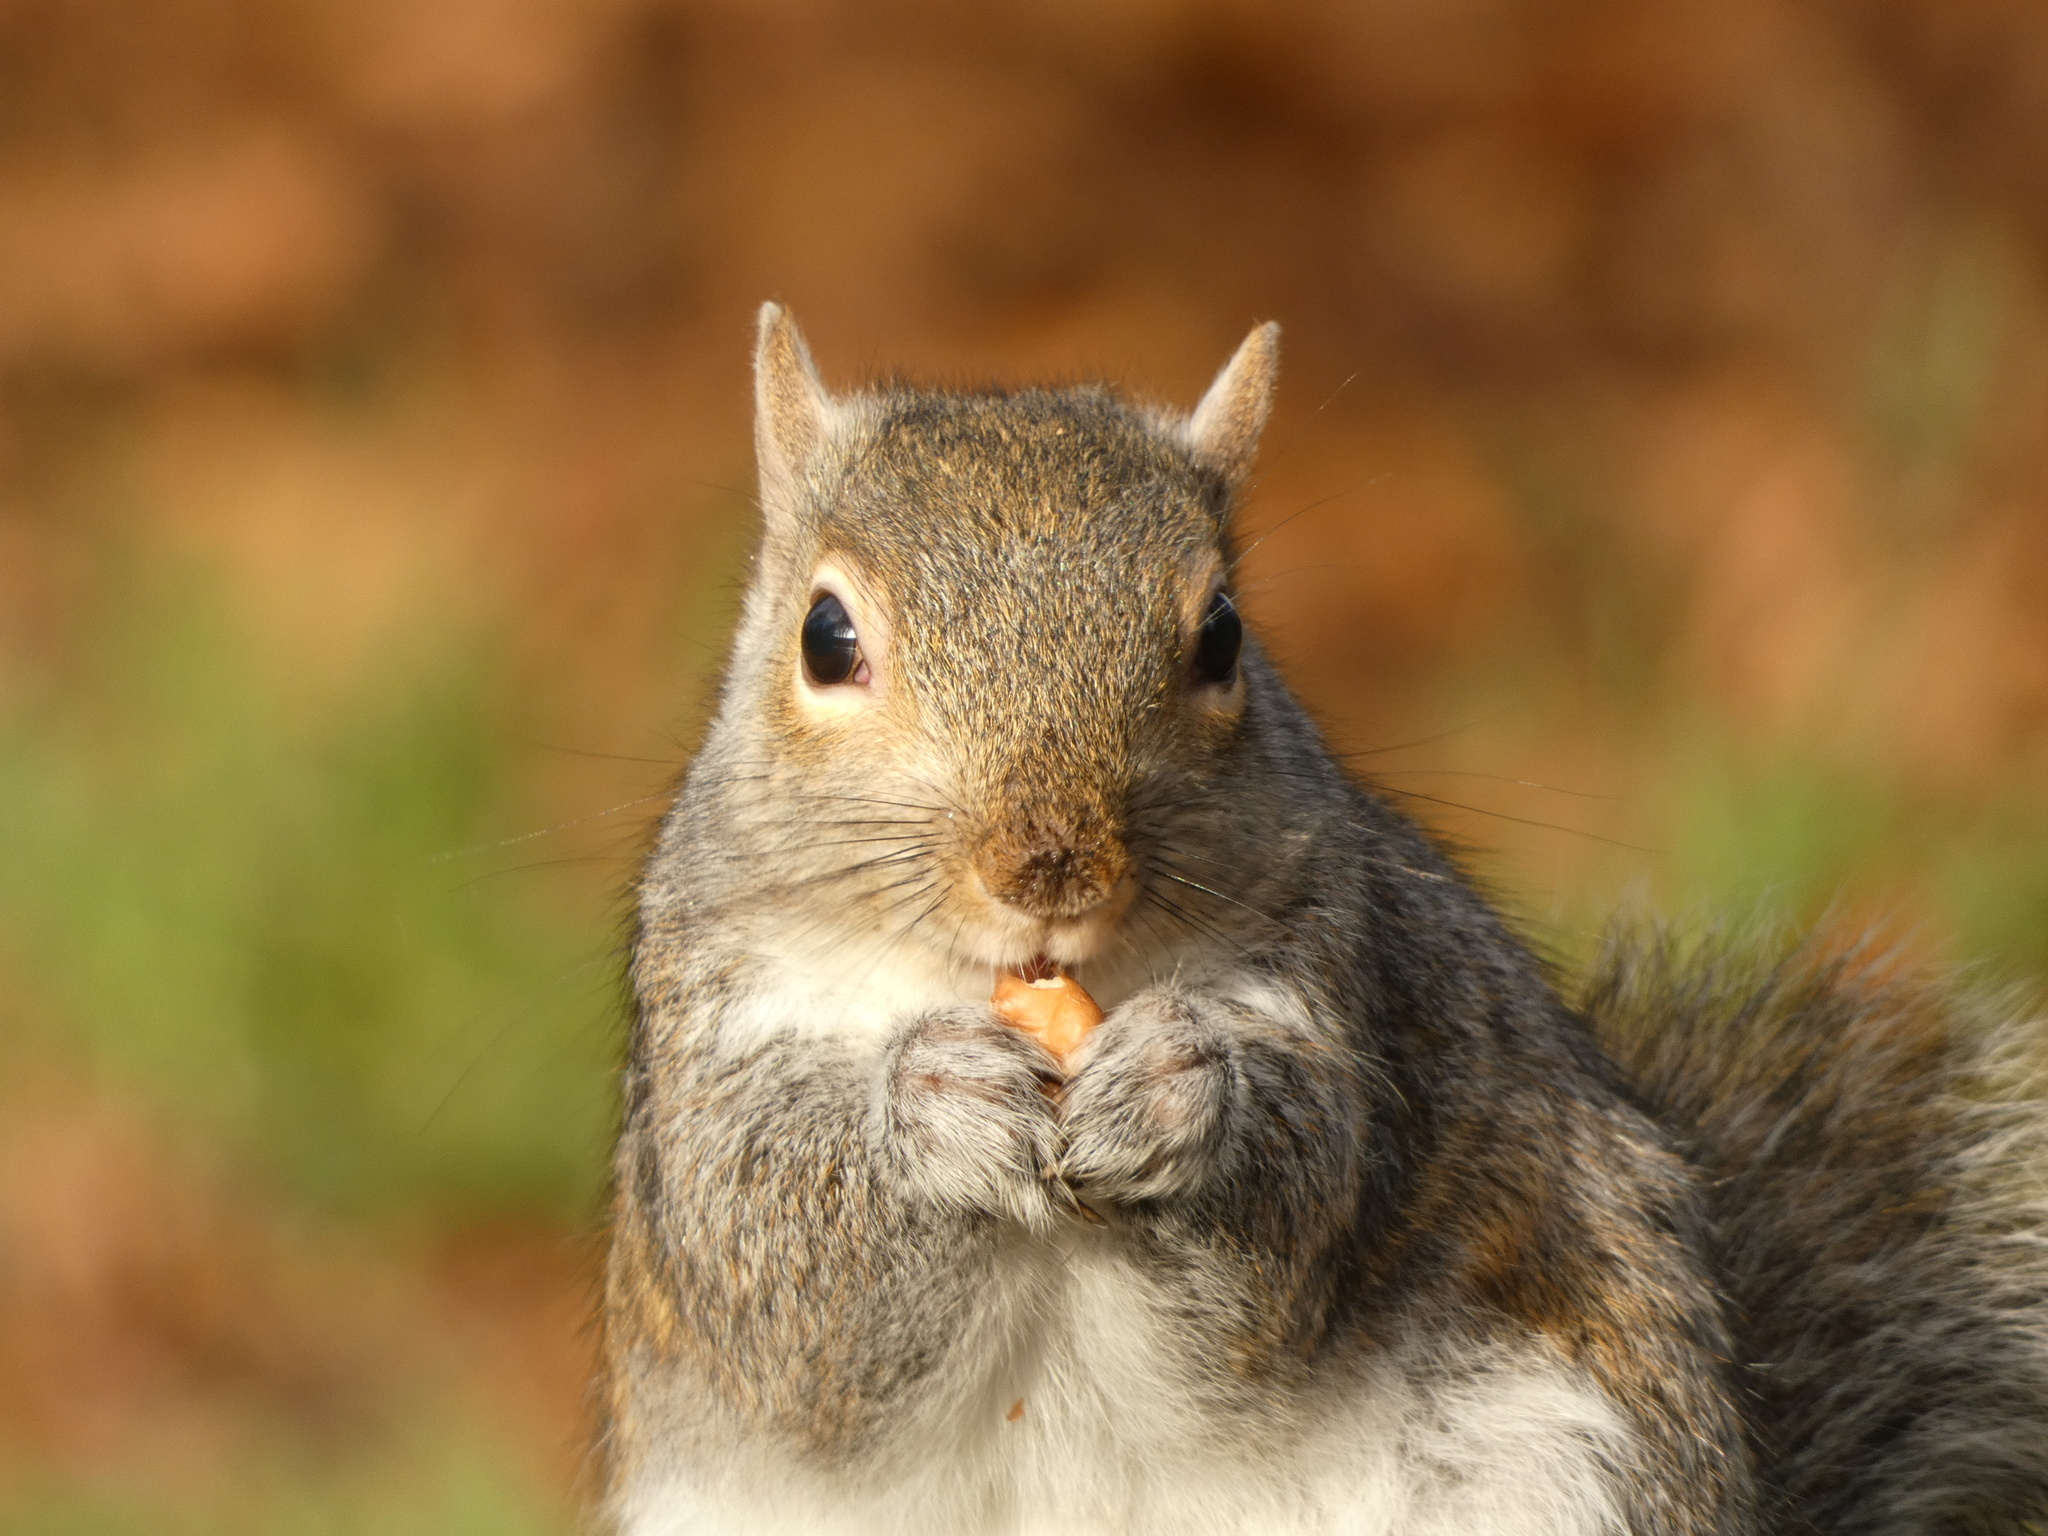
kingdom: Animalia
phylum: Chordata
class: Mammalia
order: Rodentia
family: Sciuridae
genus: Sciurus
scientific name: Sciurus carolinensis
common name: Eastern gray squirrel
